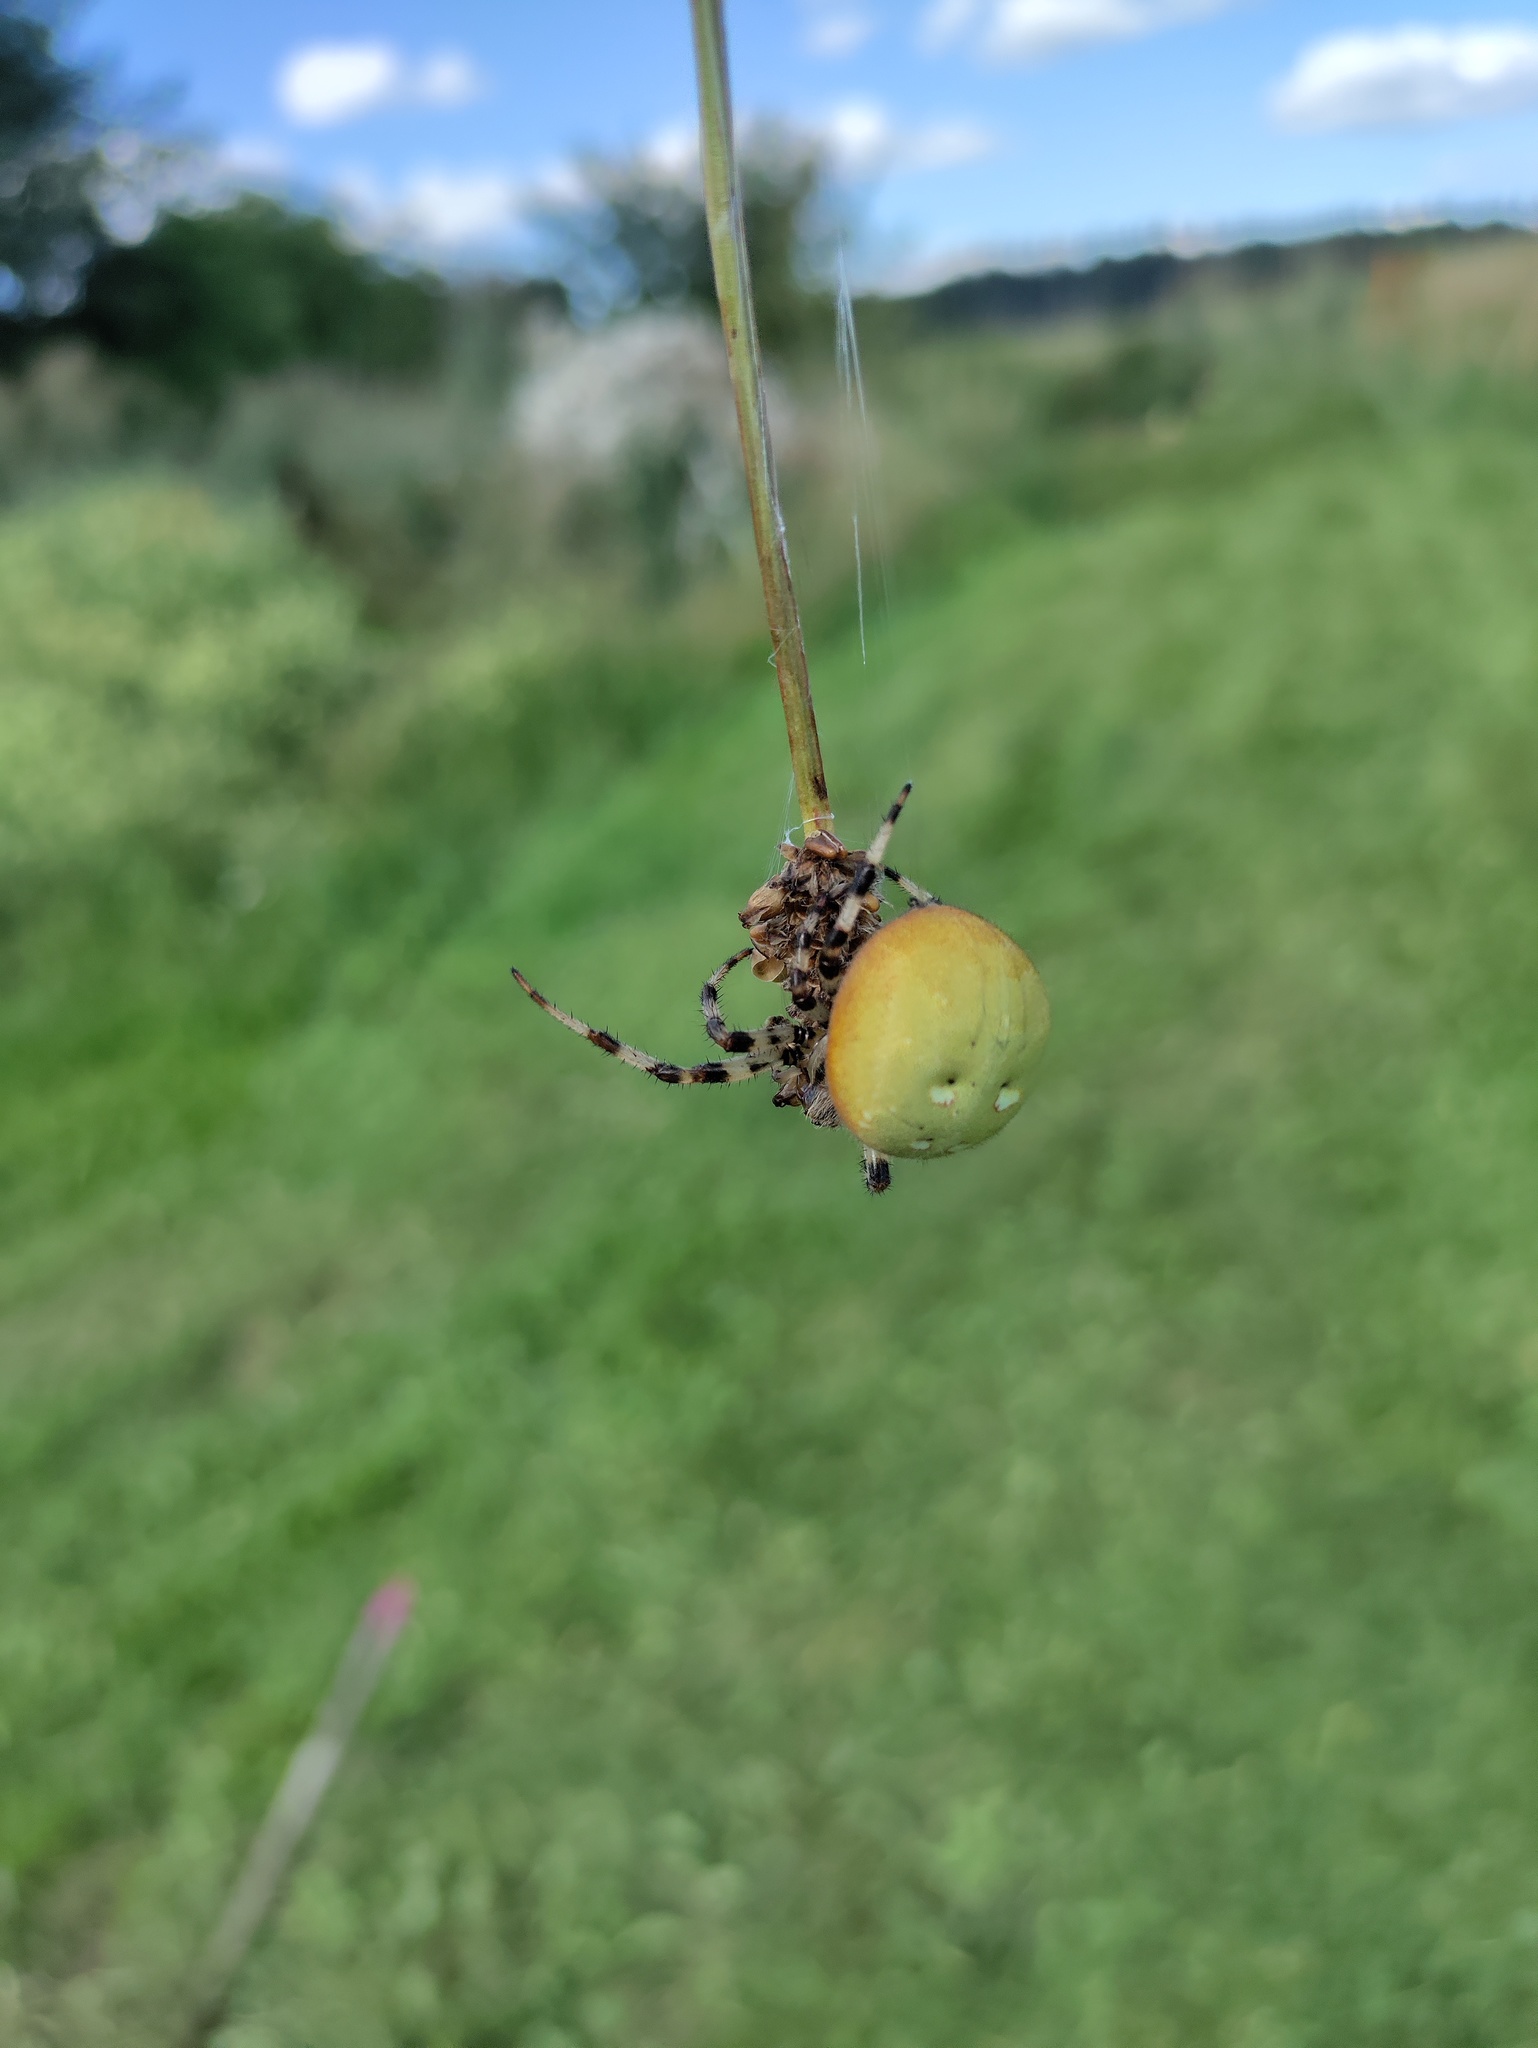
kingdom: Animalia
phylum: Arthropoda
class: Arachnida
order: Araneae
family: Araneidae
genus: Araneus
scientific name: Araneus quadratus
